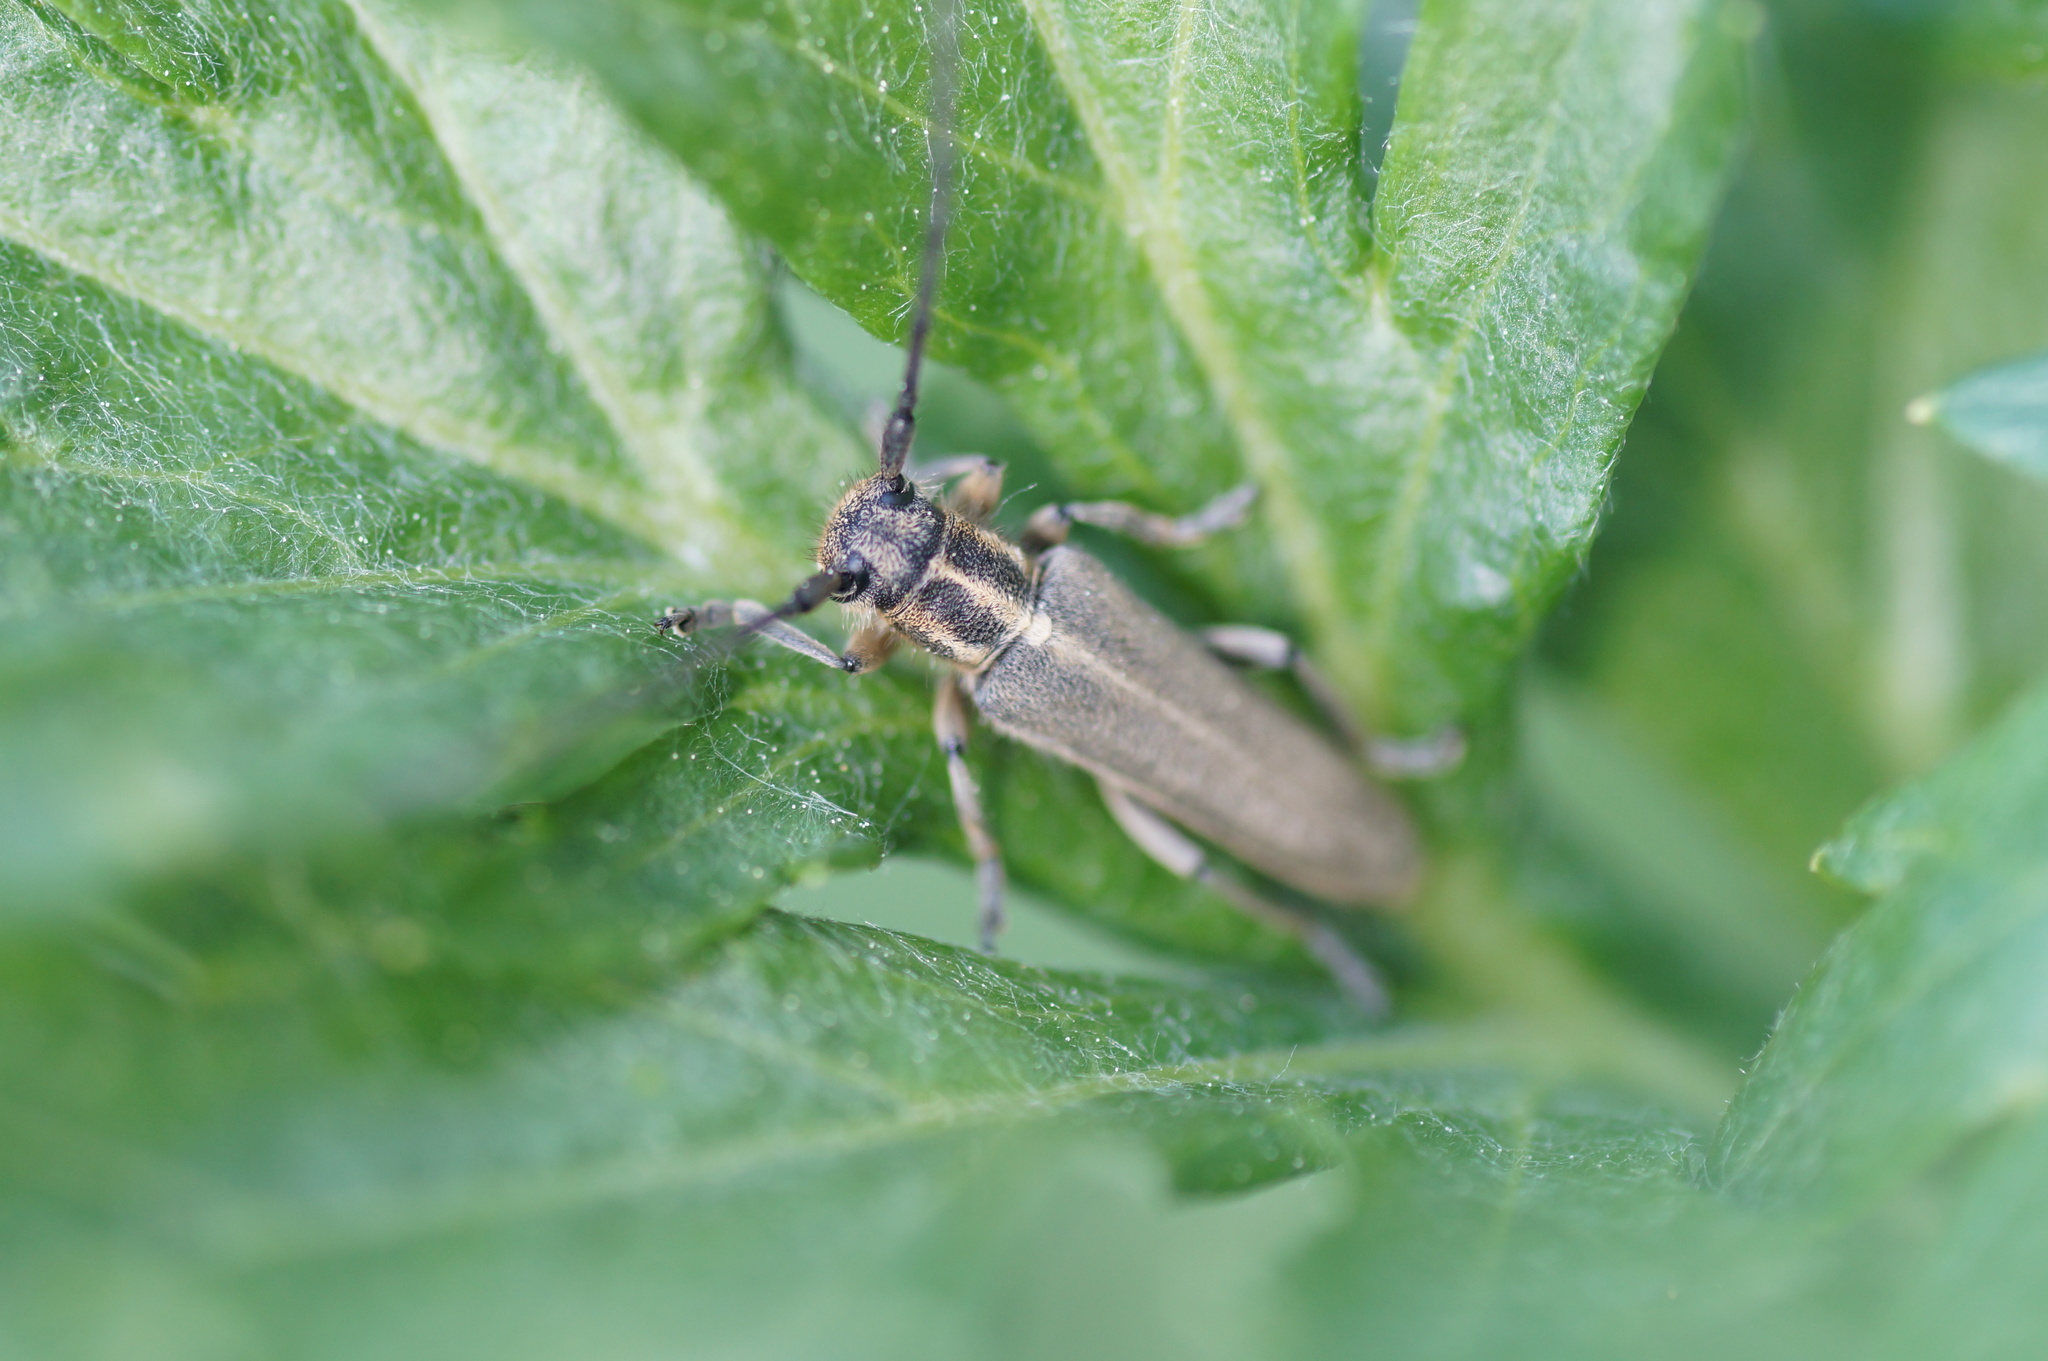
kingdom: Animalia
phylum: Arthropoda
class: Insecta
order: Coleoptera
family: Cerambycidae
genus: Phytoecia
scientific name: Phytoecia nigricornis
